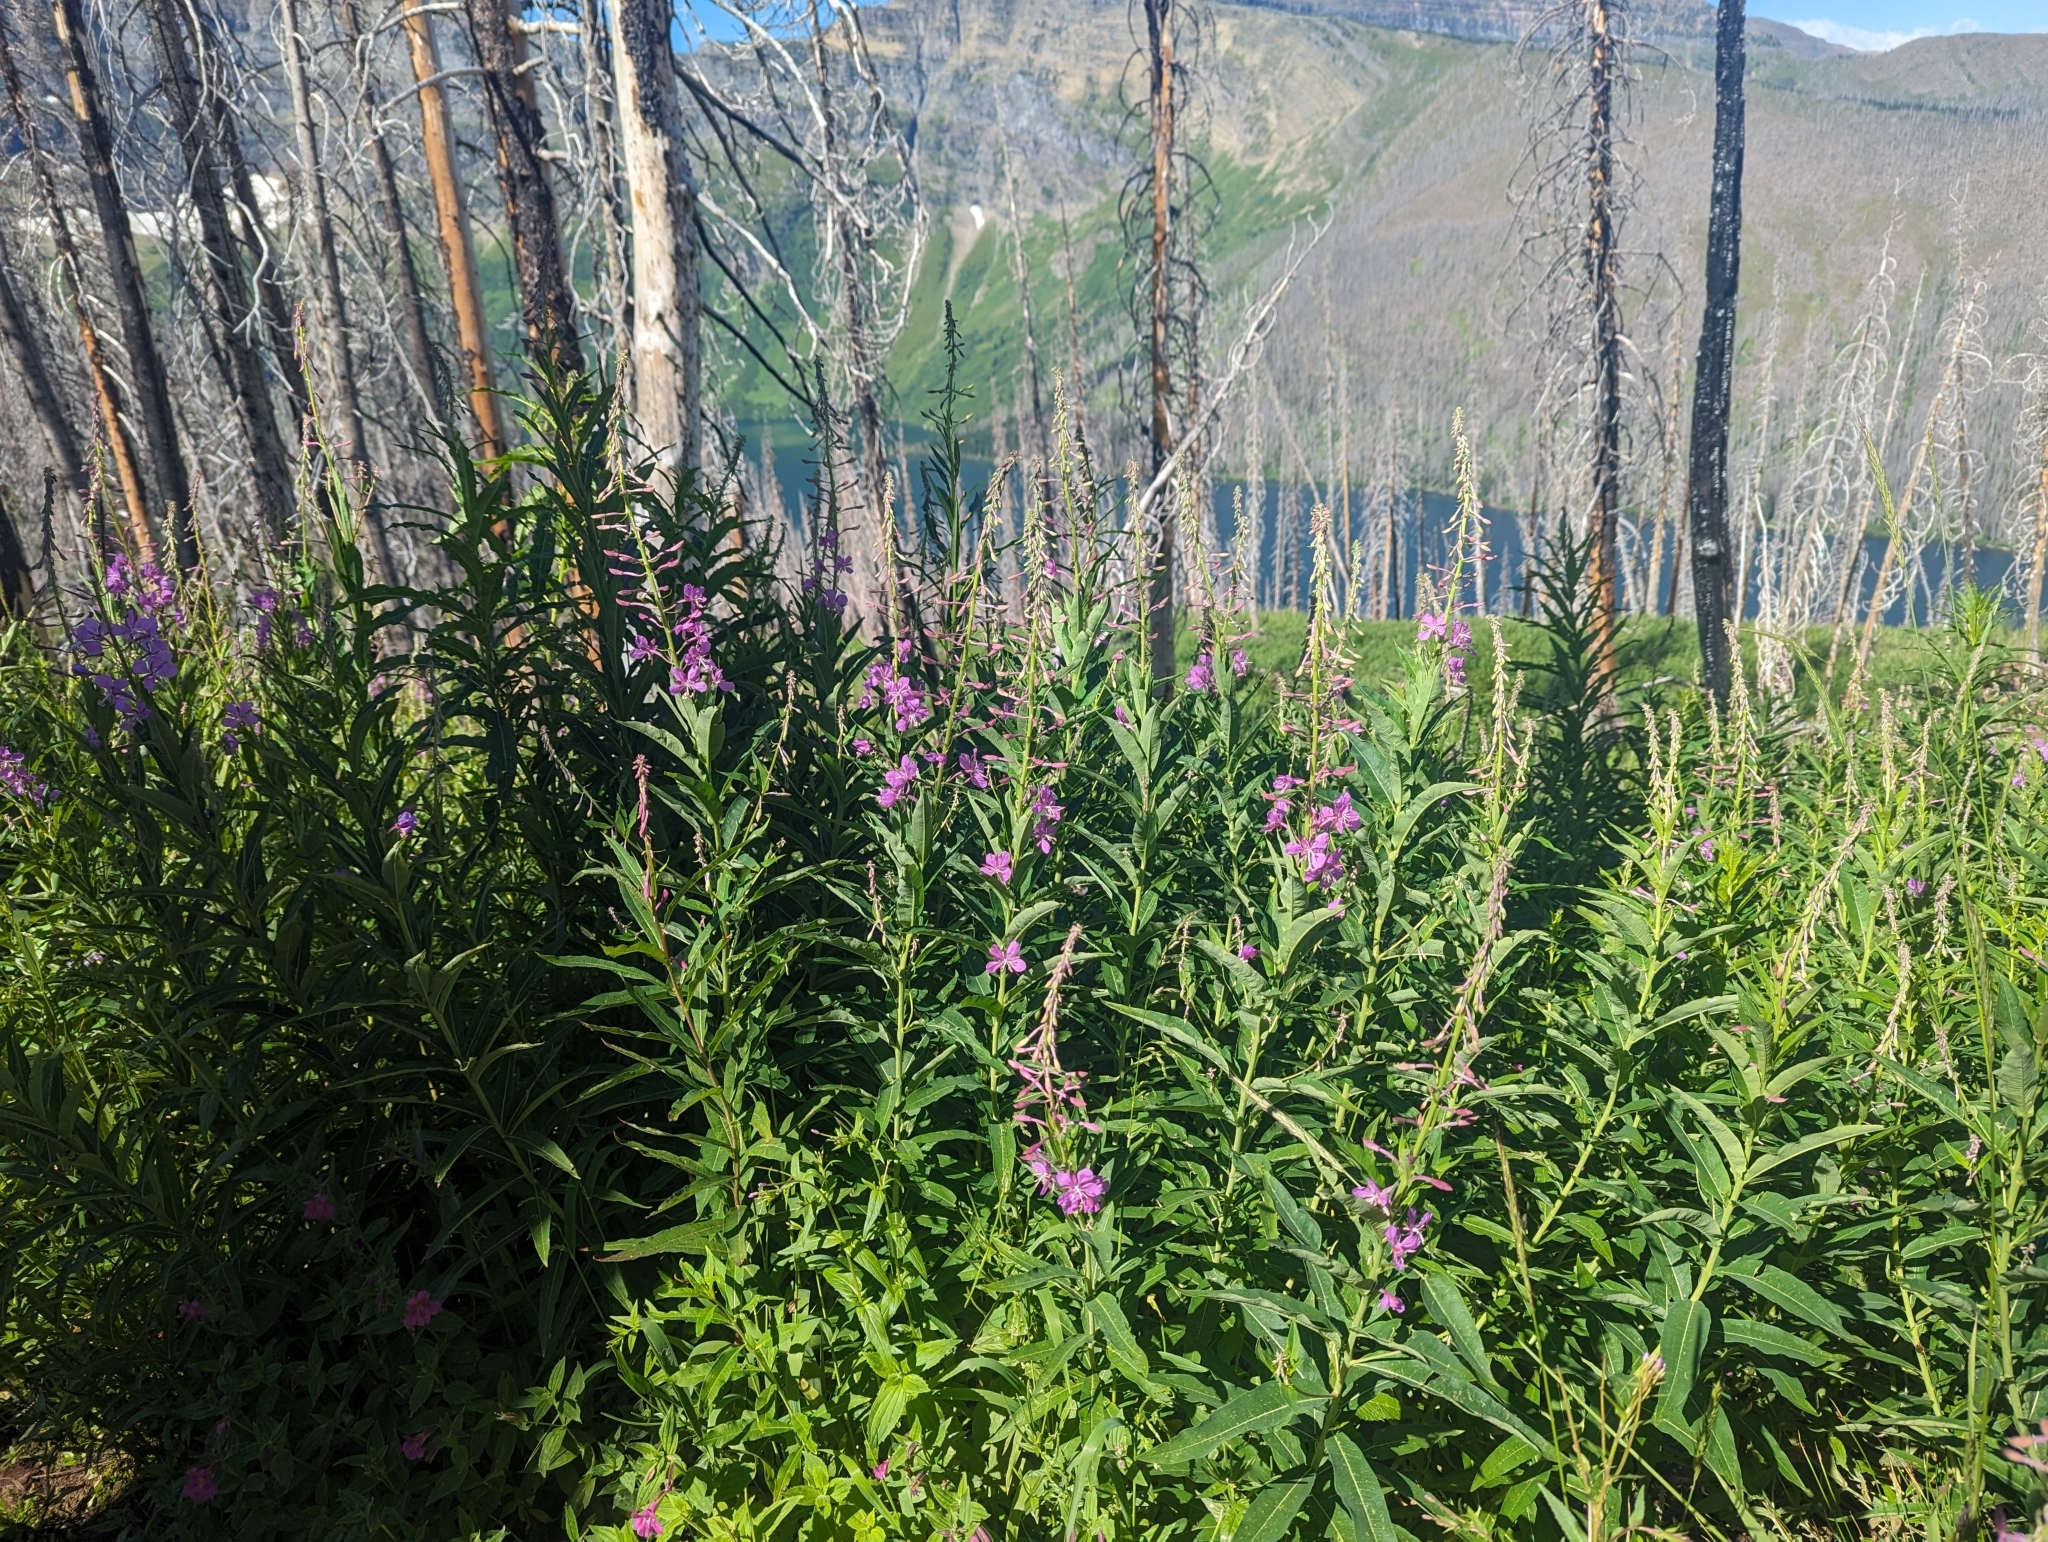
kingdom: Plantae
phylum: Tracheophyta
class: Magnoliopsida
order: Myrtales
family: Onagraceae
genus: Chamaenerion
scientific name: Chamaenerion angustifolium
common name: Fireweed
